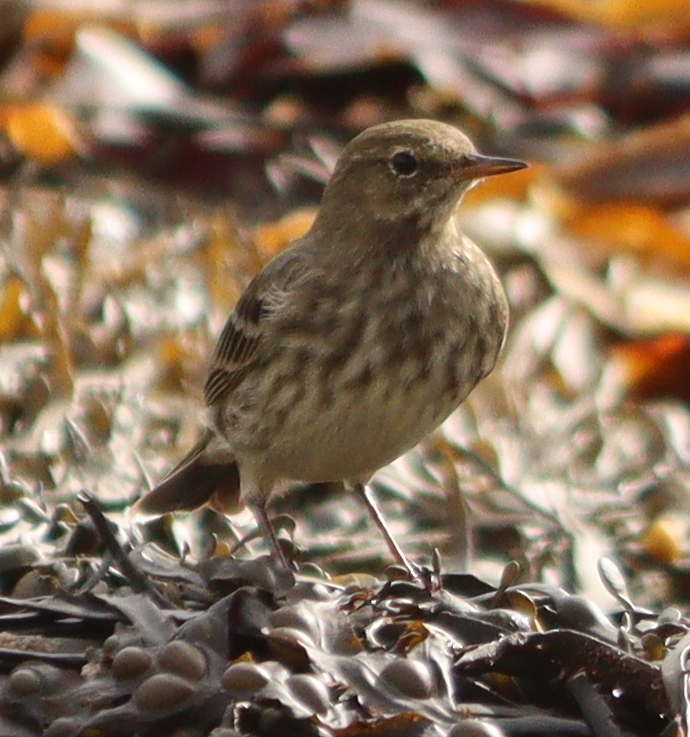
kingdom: Animalia
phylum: Chordata
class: Aves
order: Passeriformes
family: Motacillidae
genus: Anthus
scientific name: Anthus petrosus
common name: Eurasian rock pipit
